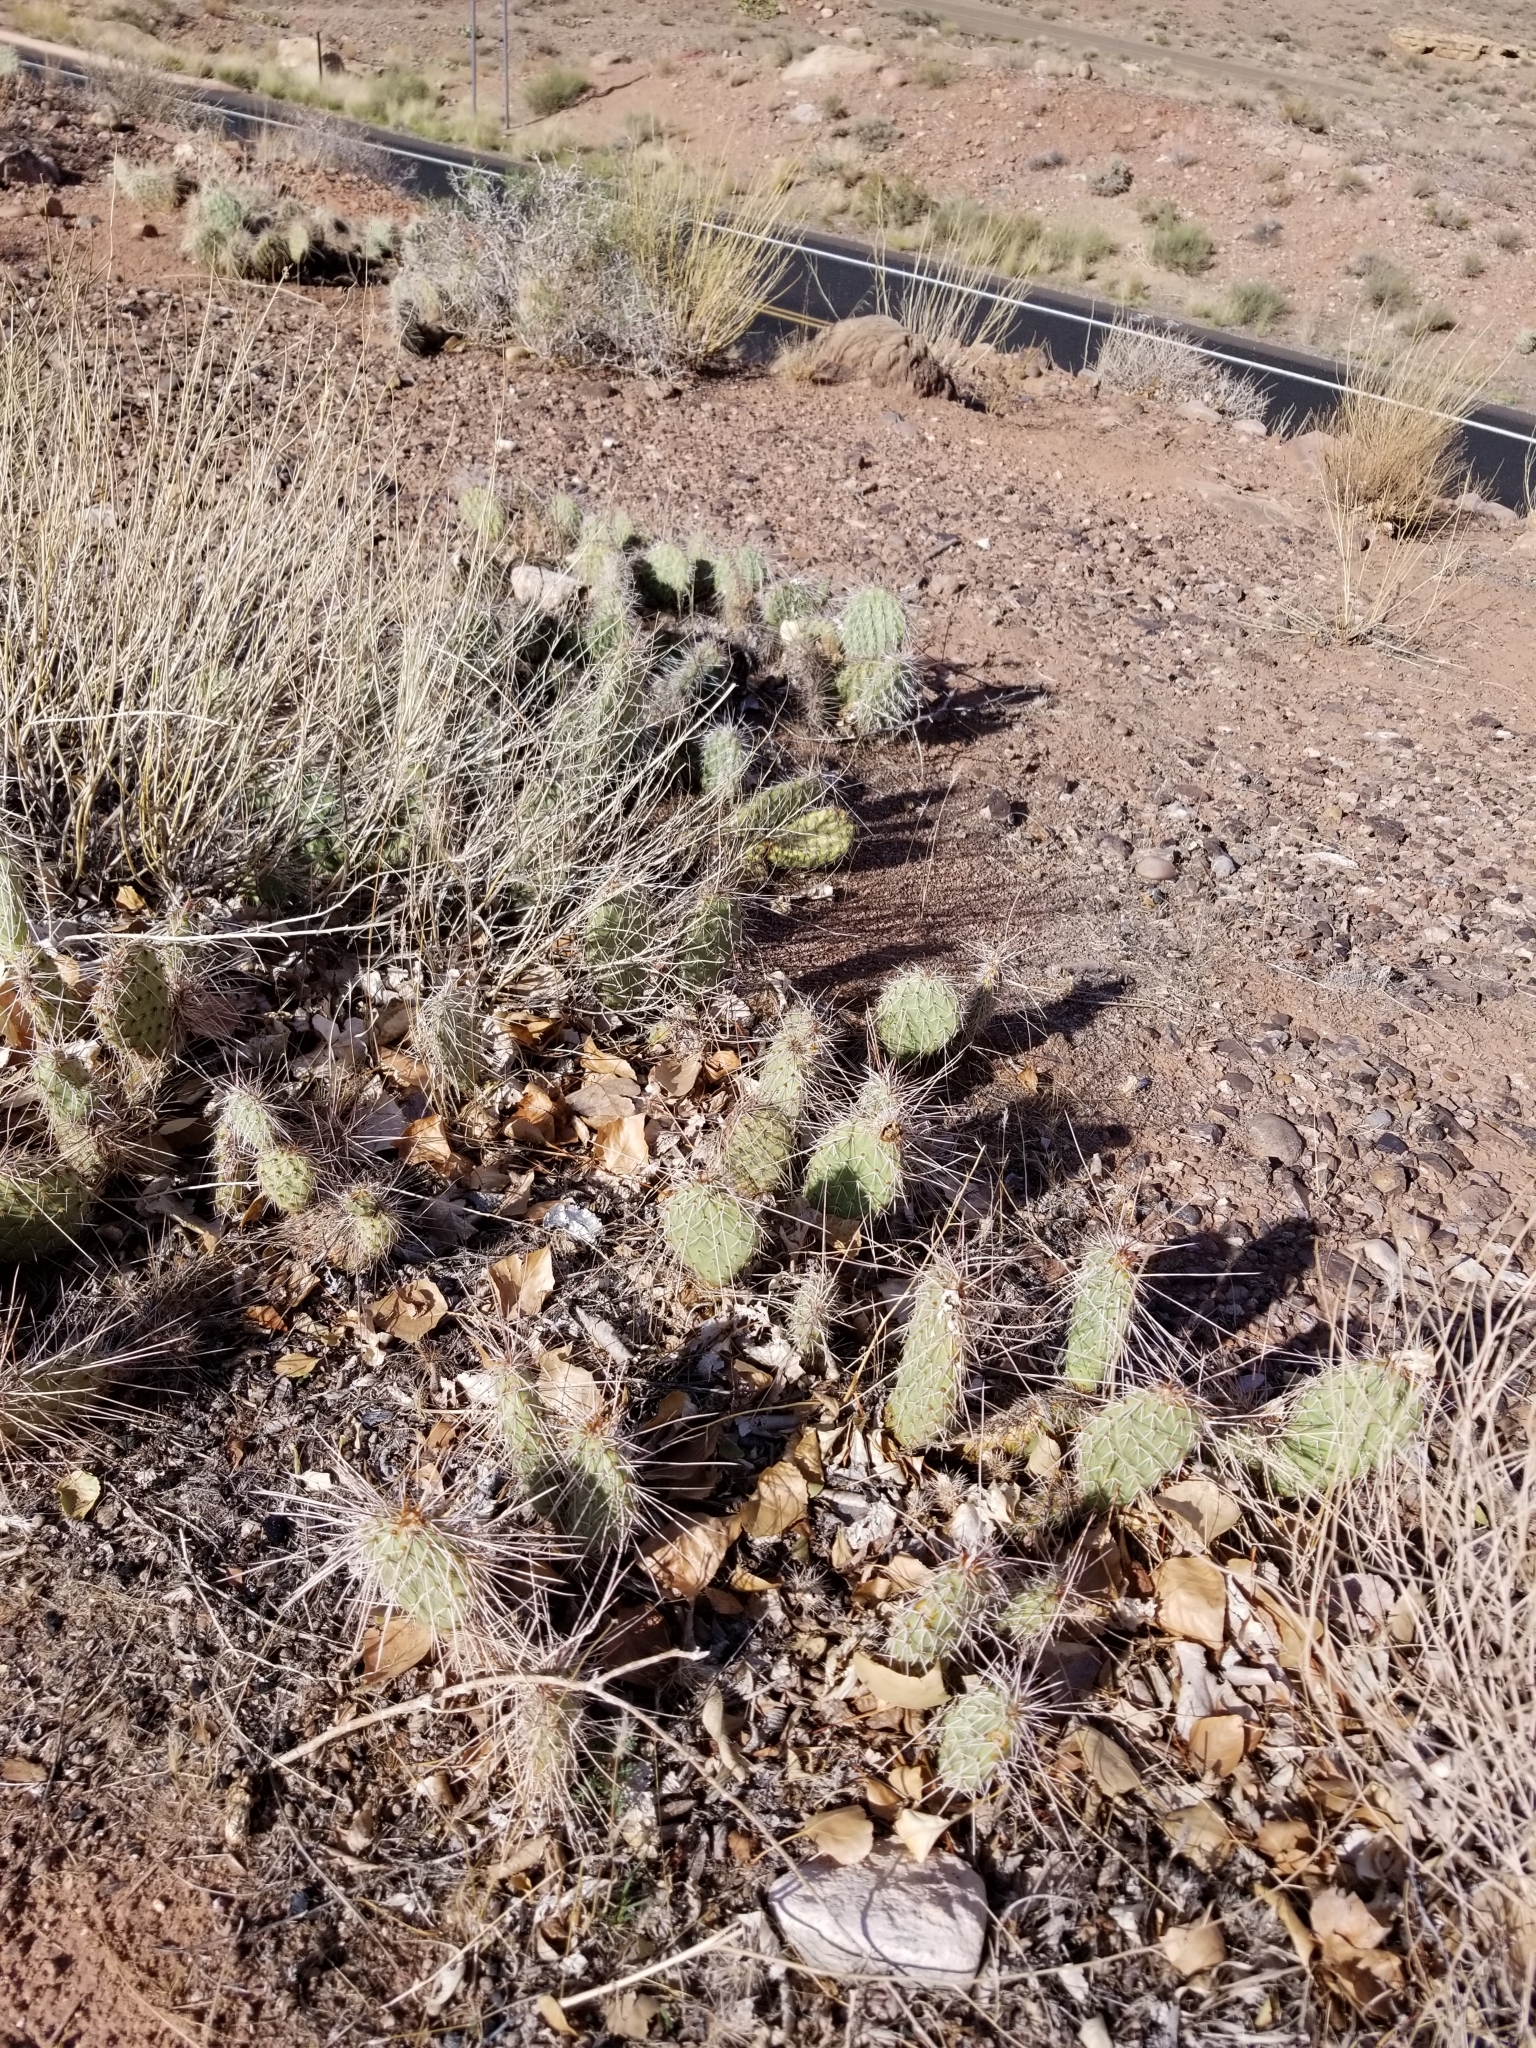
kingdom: Plantae
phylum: Tracheophyta
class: Magnoliopsida
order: Caryophyllales
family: Cactaceae
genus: Opuntia
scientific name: Opuntia polyacantha
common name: Plains prickly-pear
